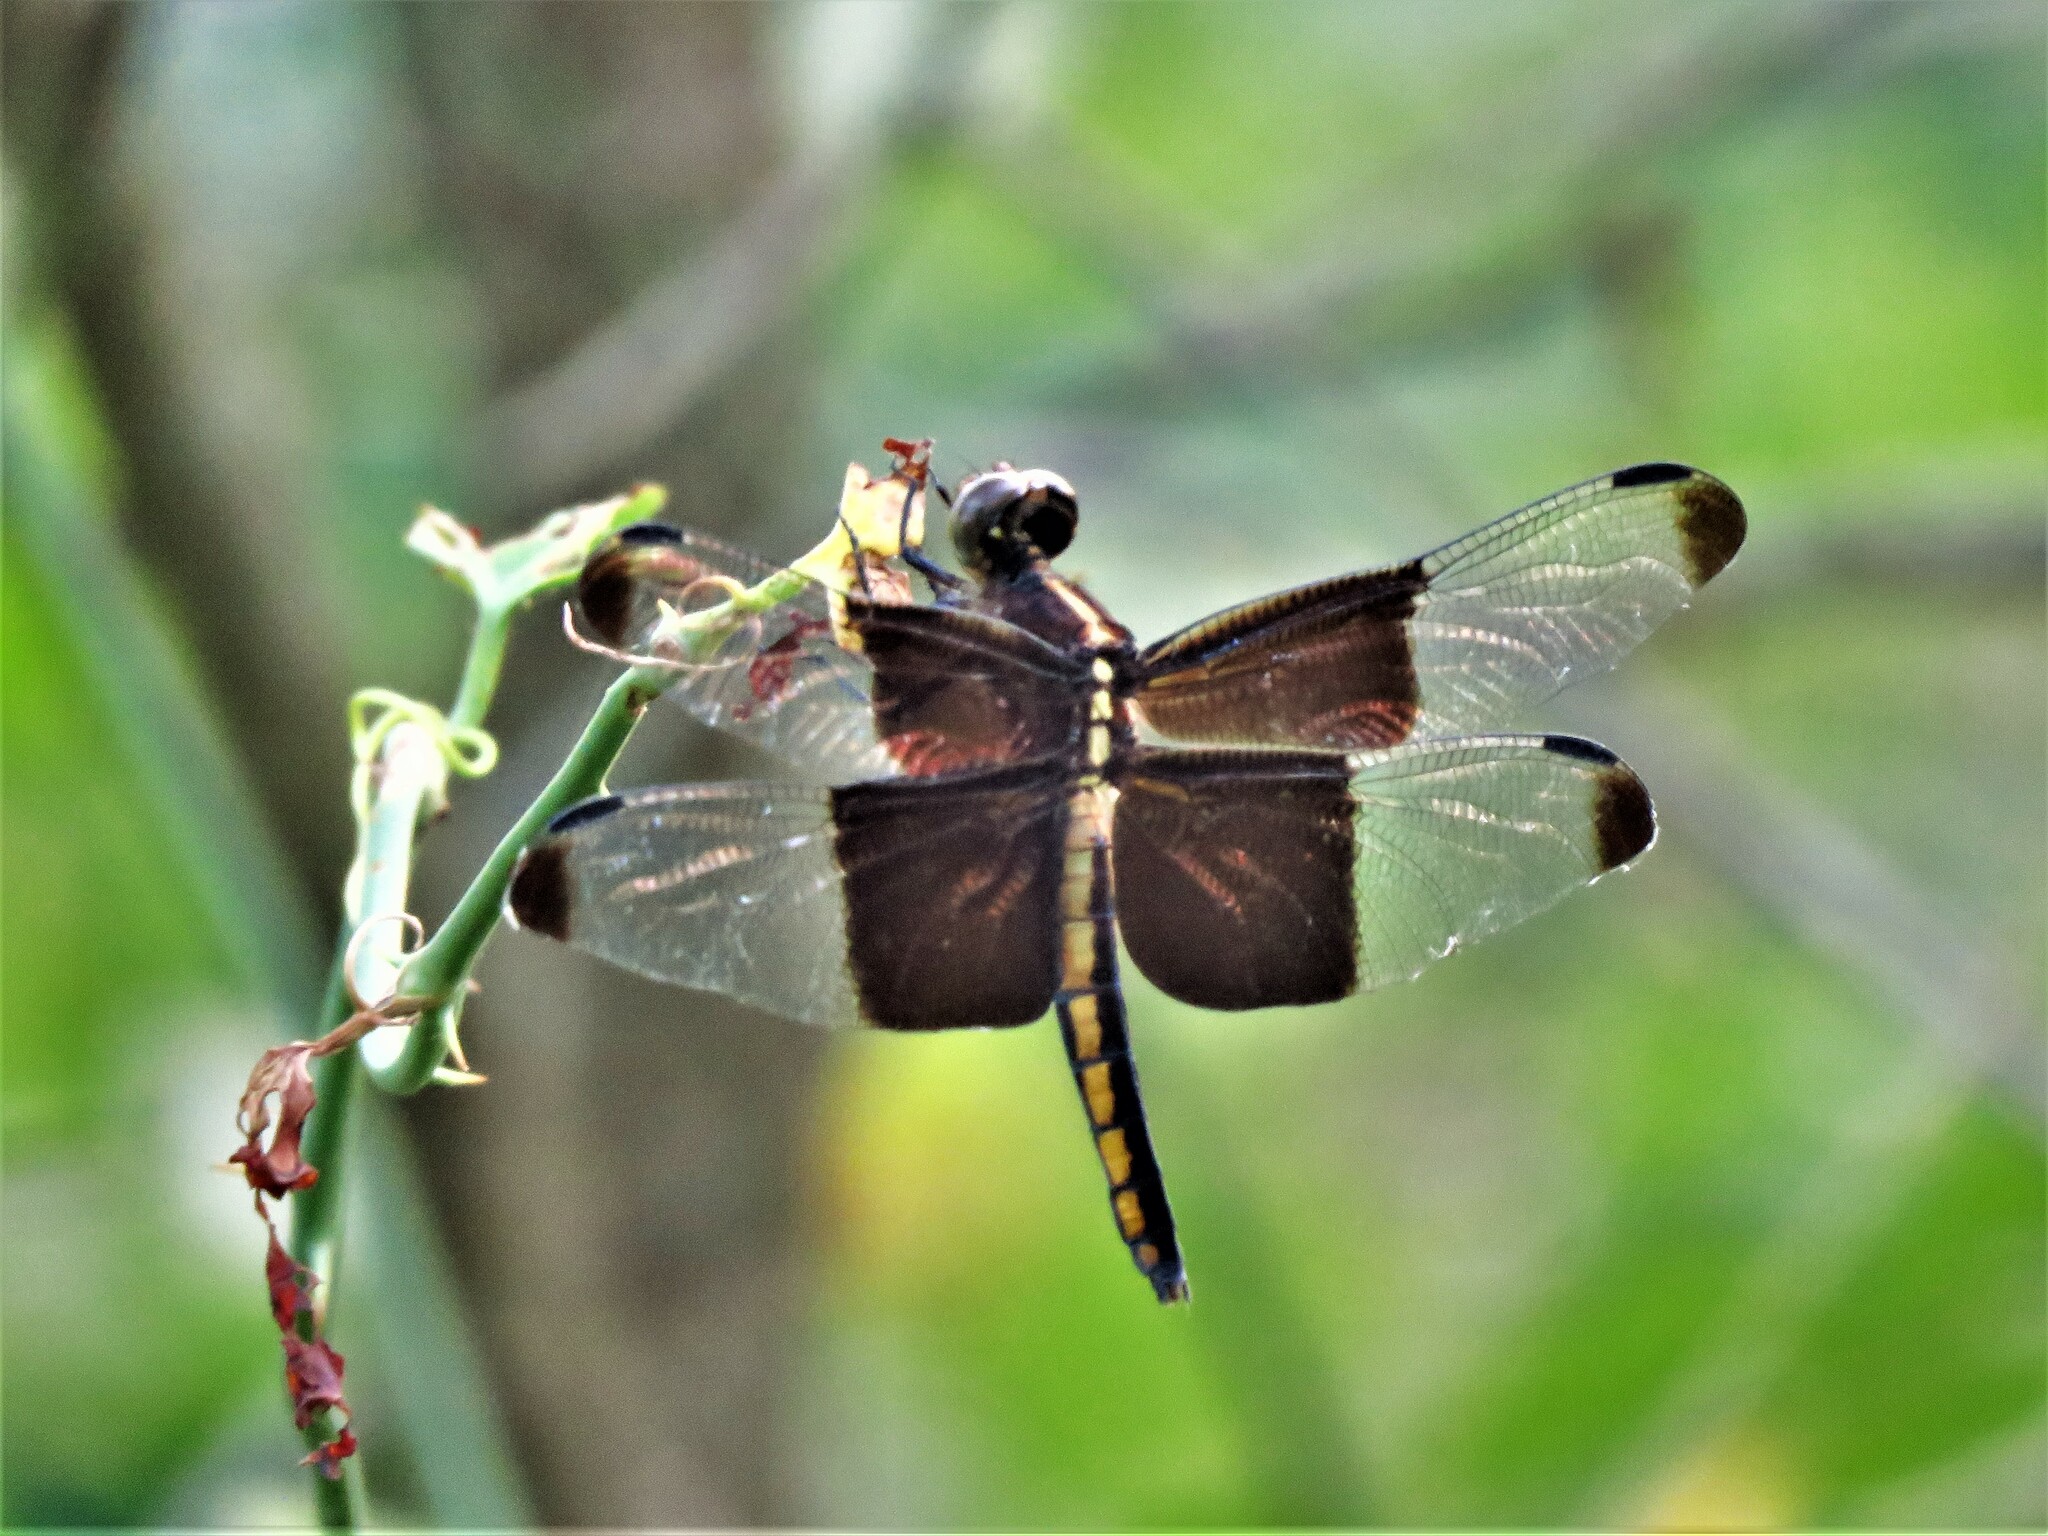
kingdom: Animalia
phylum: Arthropoda
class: Insecta
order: Odonata
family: Libellulidae
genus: Libellula
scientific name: Libellula luctuosa
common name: Widow skimmer
